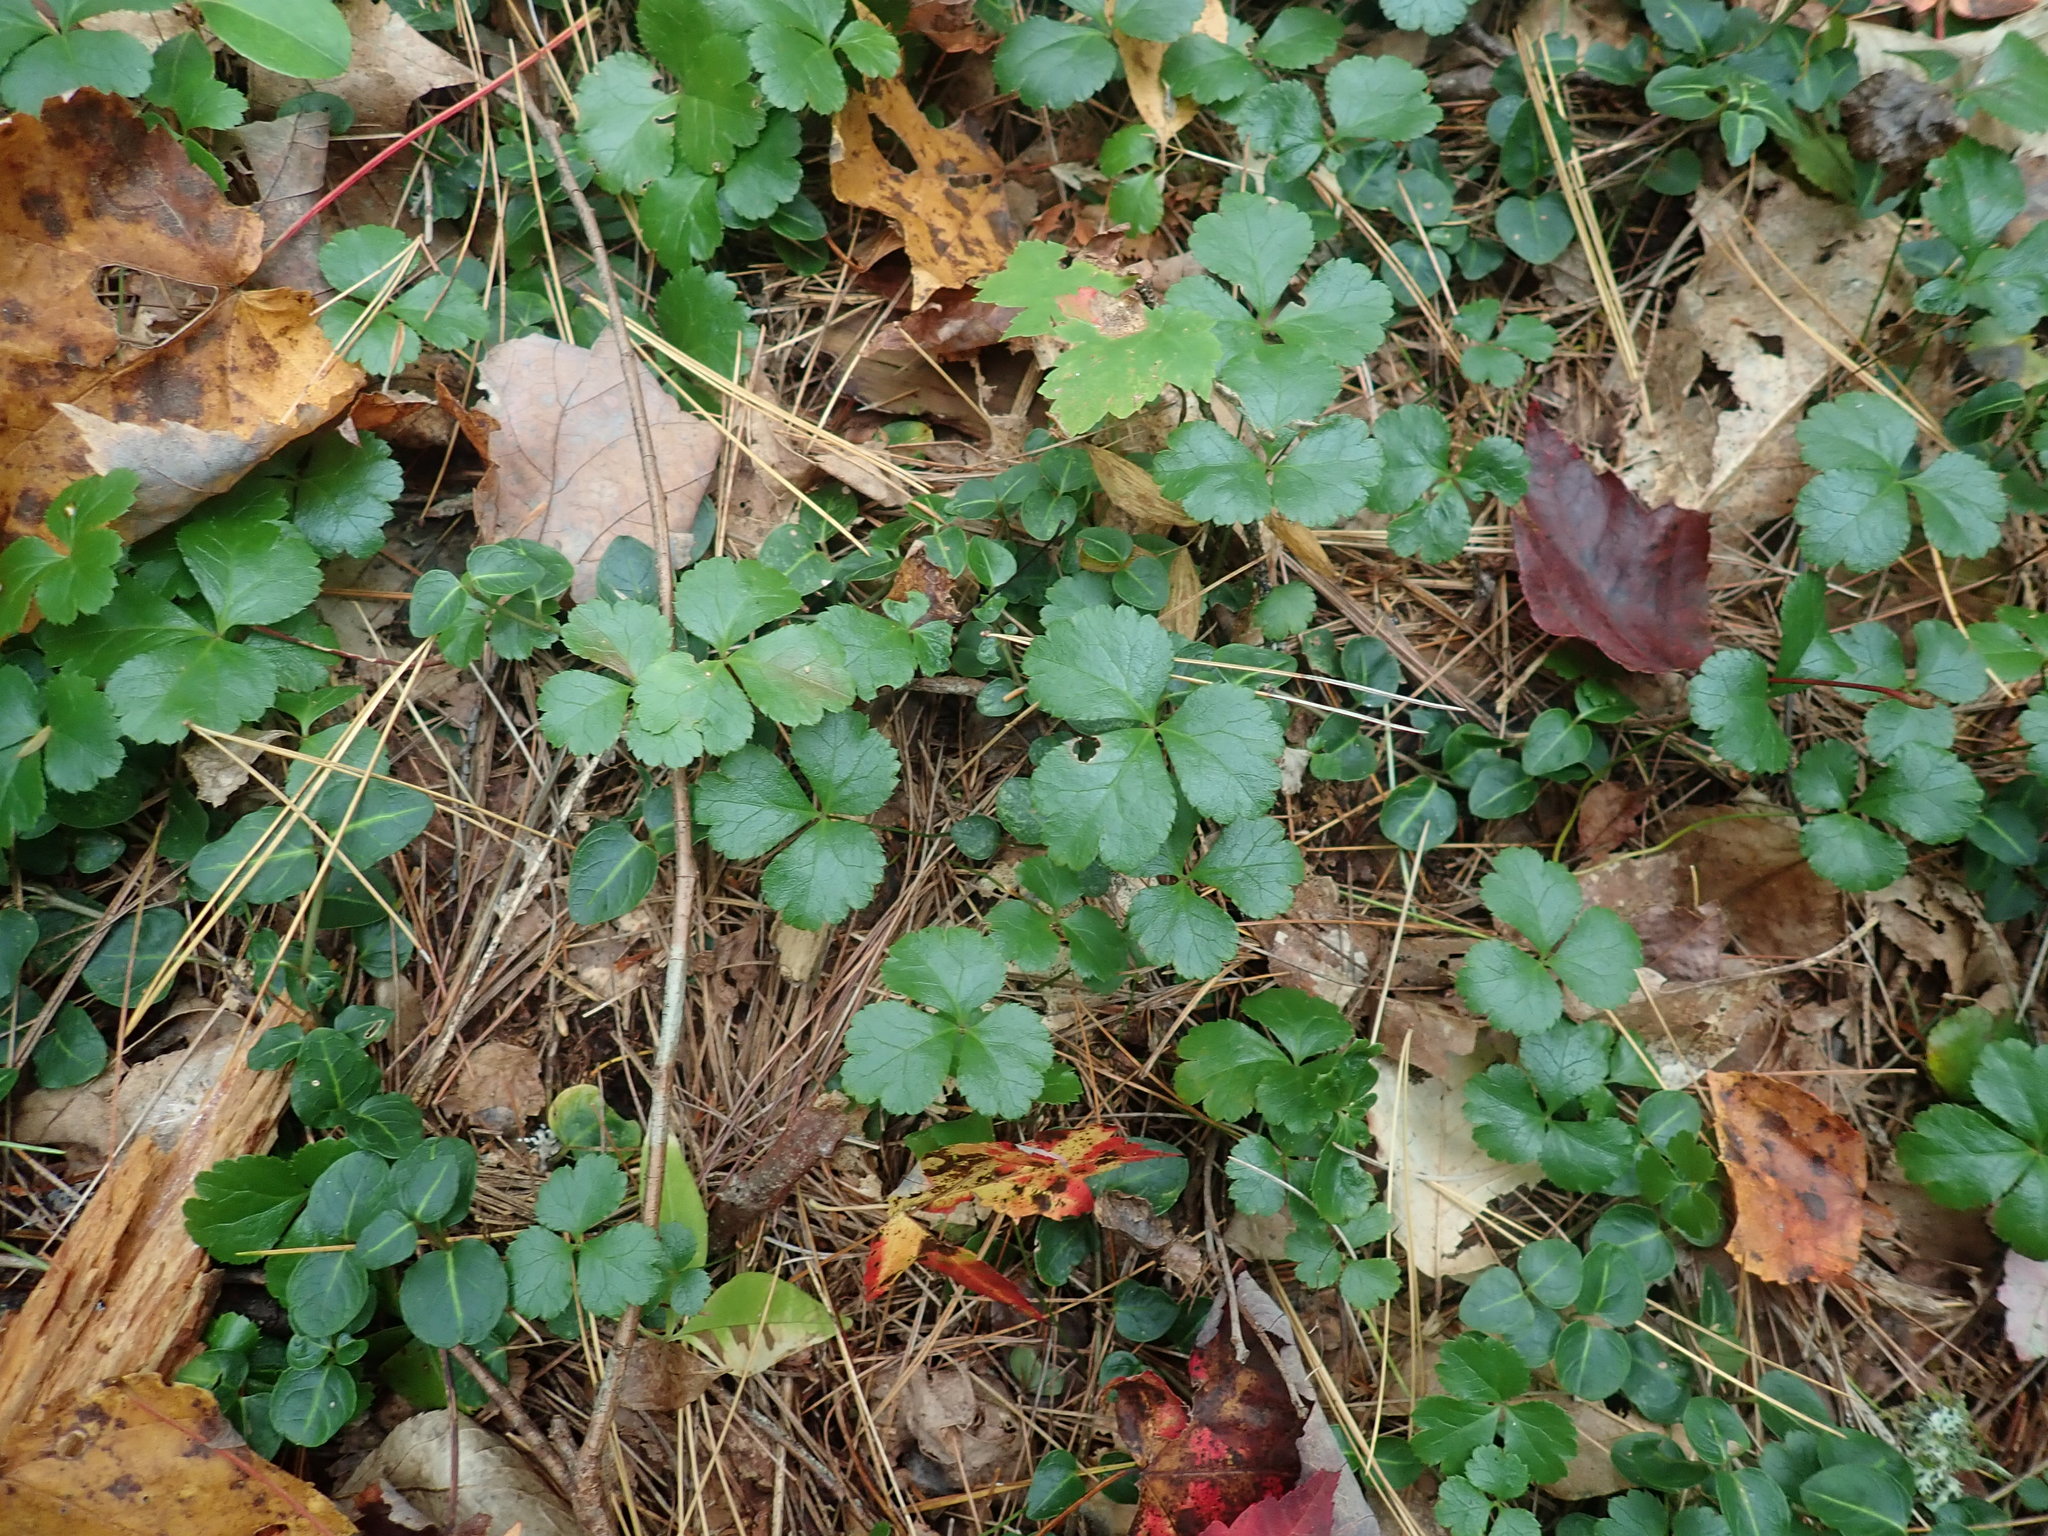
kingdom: Plantae
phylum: Tracheophyta
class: Magnoliopsida
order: Ranunculales
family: Ranunculaceae
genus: Coptis
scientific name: Coptis trifolia
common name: Canker-root
